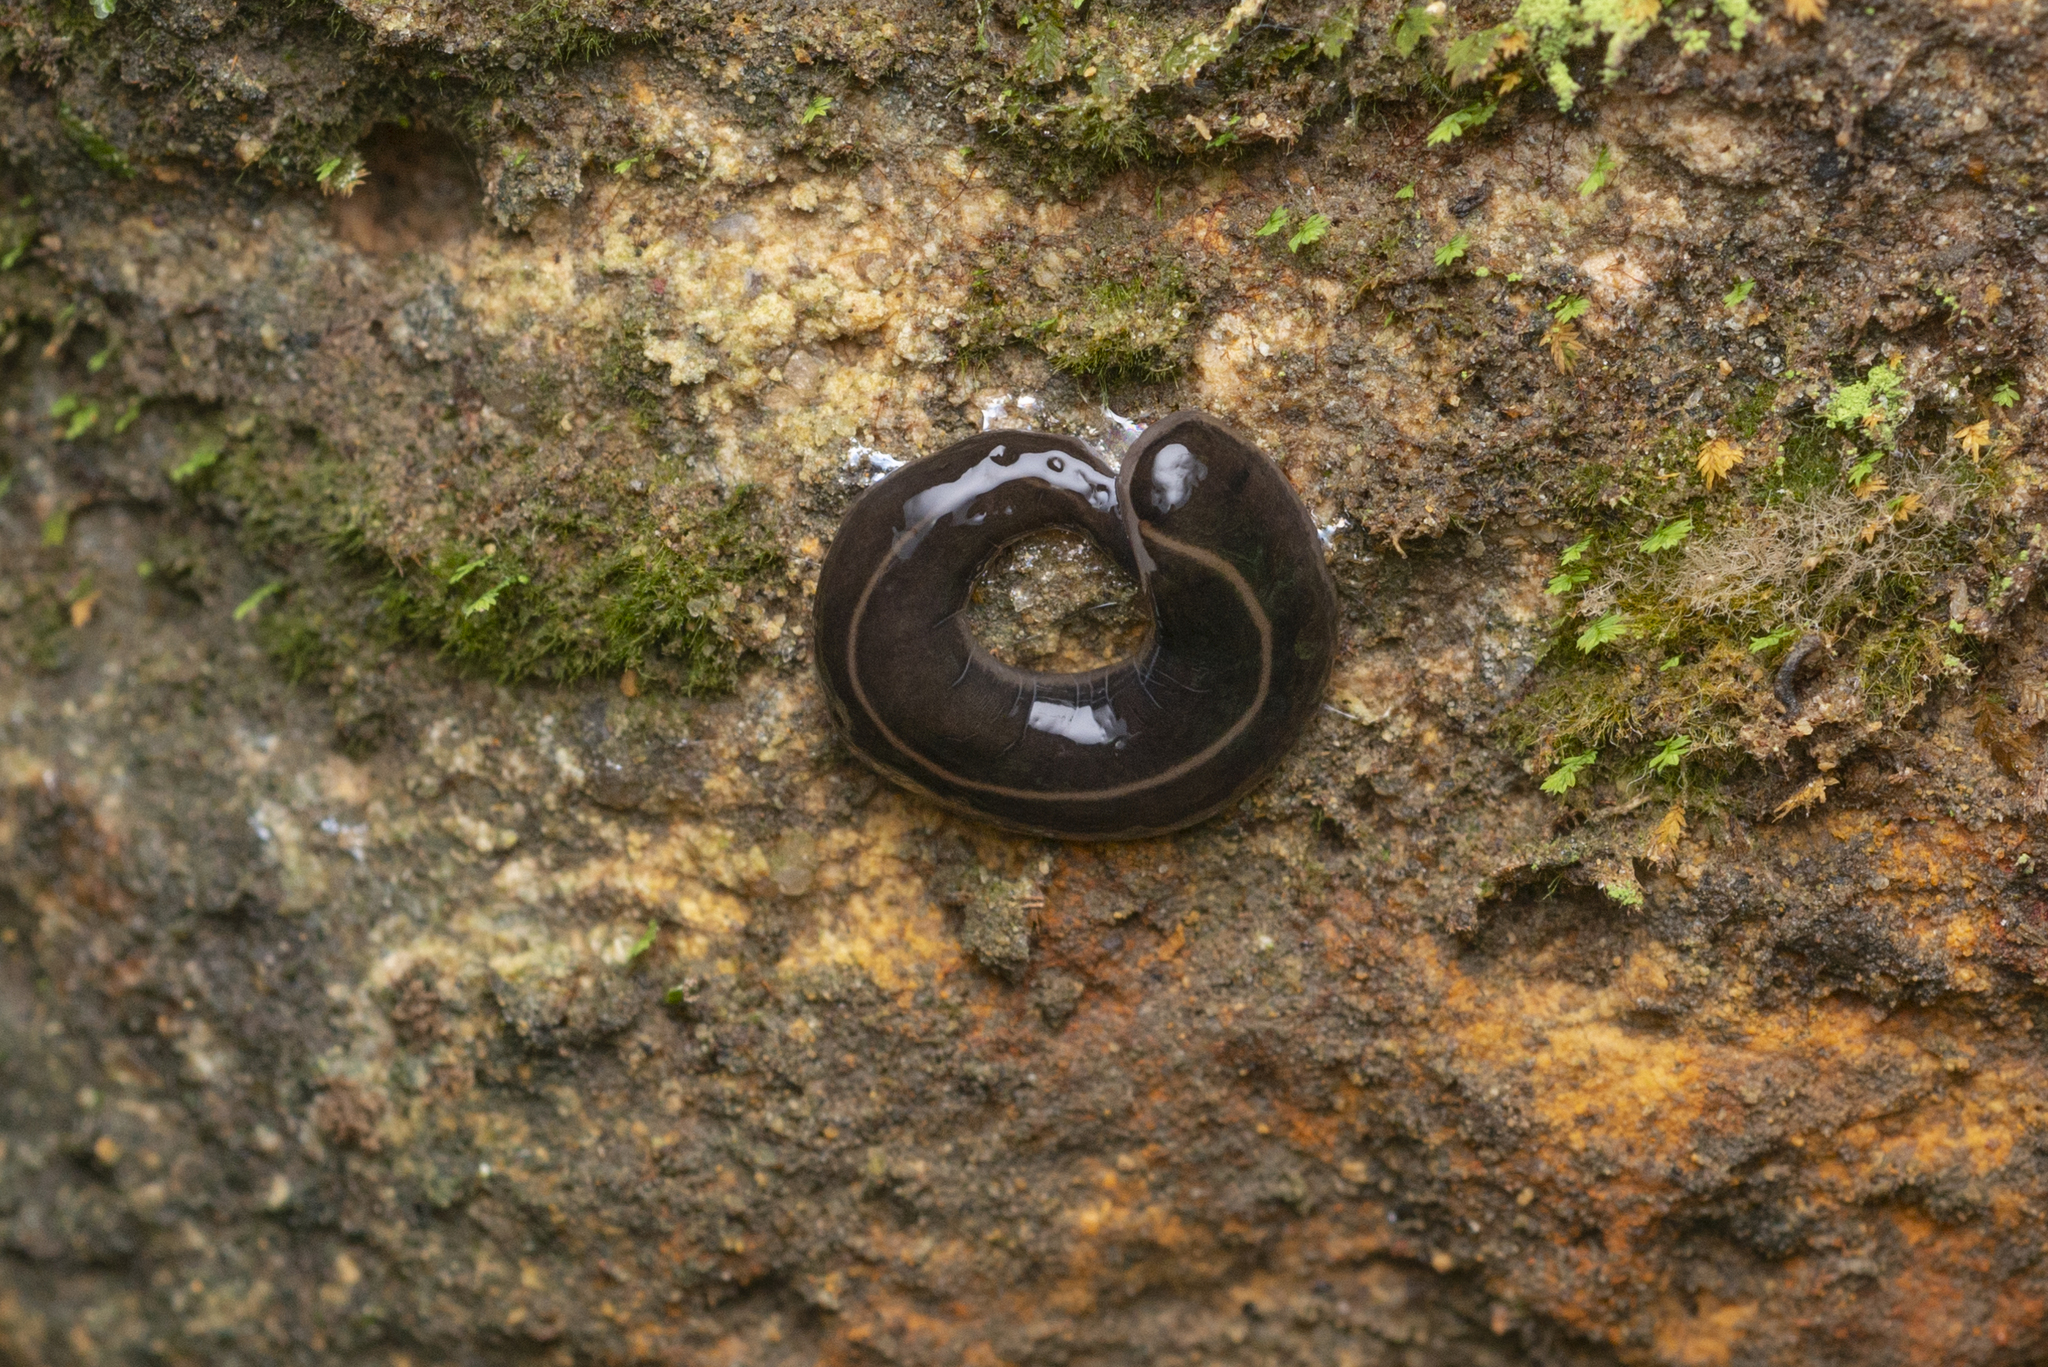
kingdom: Animalia
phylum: Platyhelminthes
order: Tricladida
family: Geoplanidae
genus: Platydemus
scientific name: Platydemus manokwari
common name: New guinea flatworm
